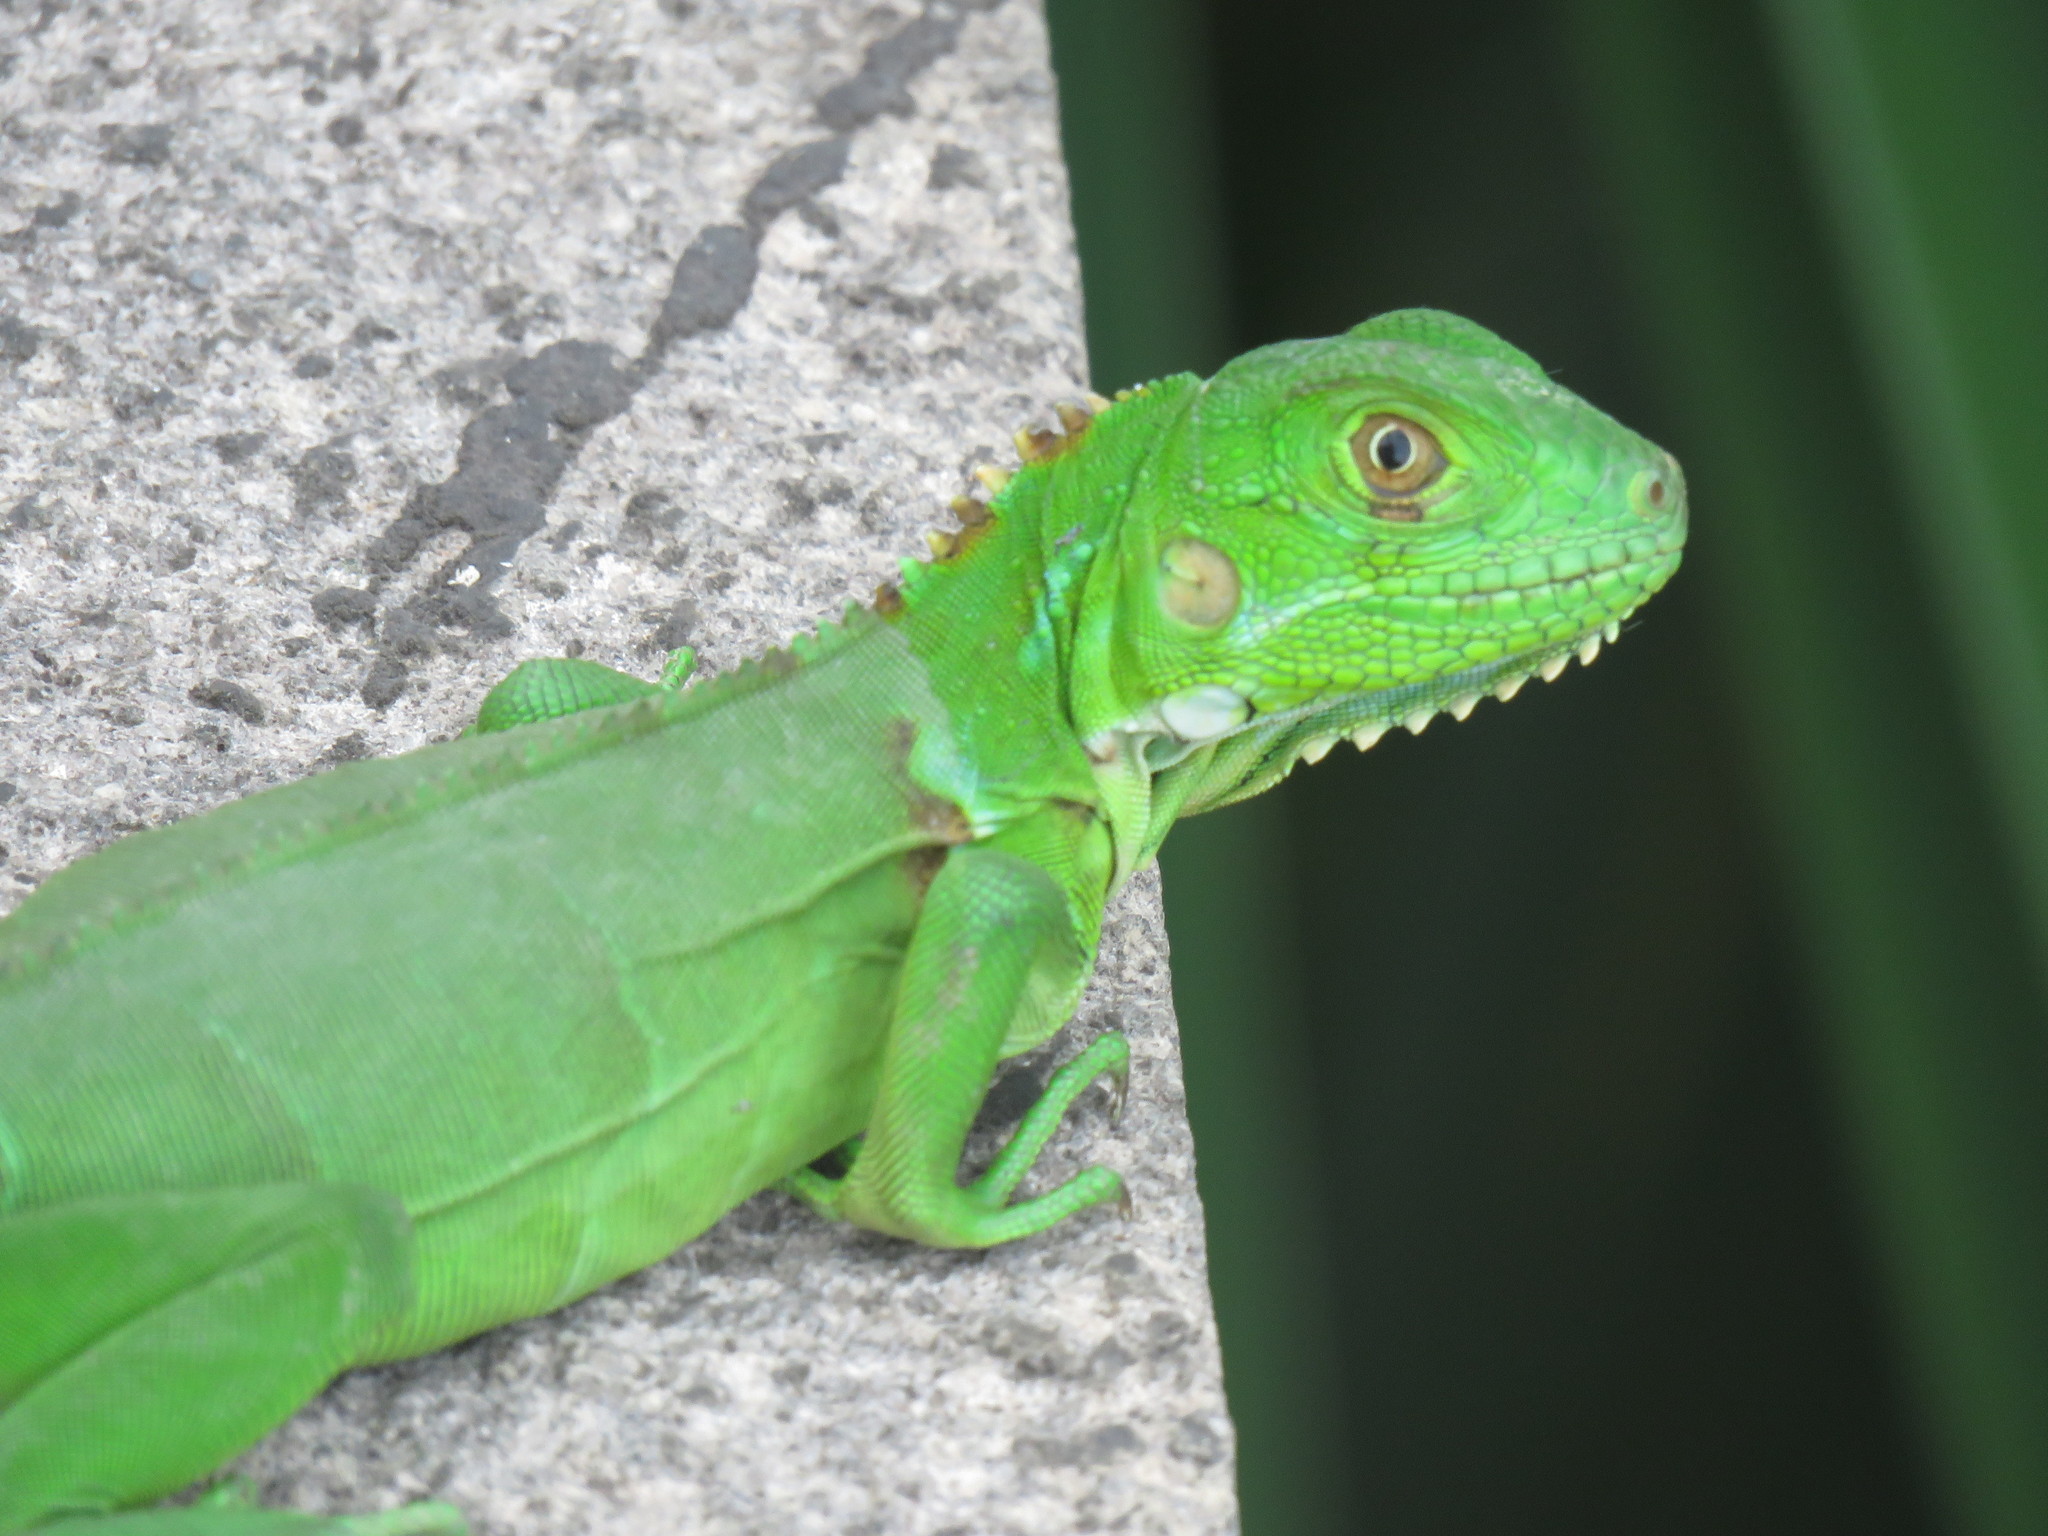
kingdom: Animalia
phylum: Chordata
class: Squamata
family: Iguanidae
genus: Iguana
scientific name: Iguana iguana
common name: Green iguana
